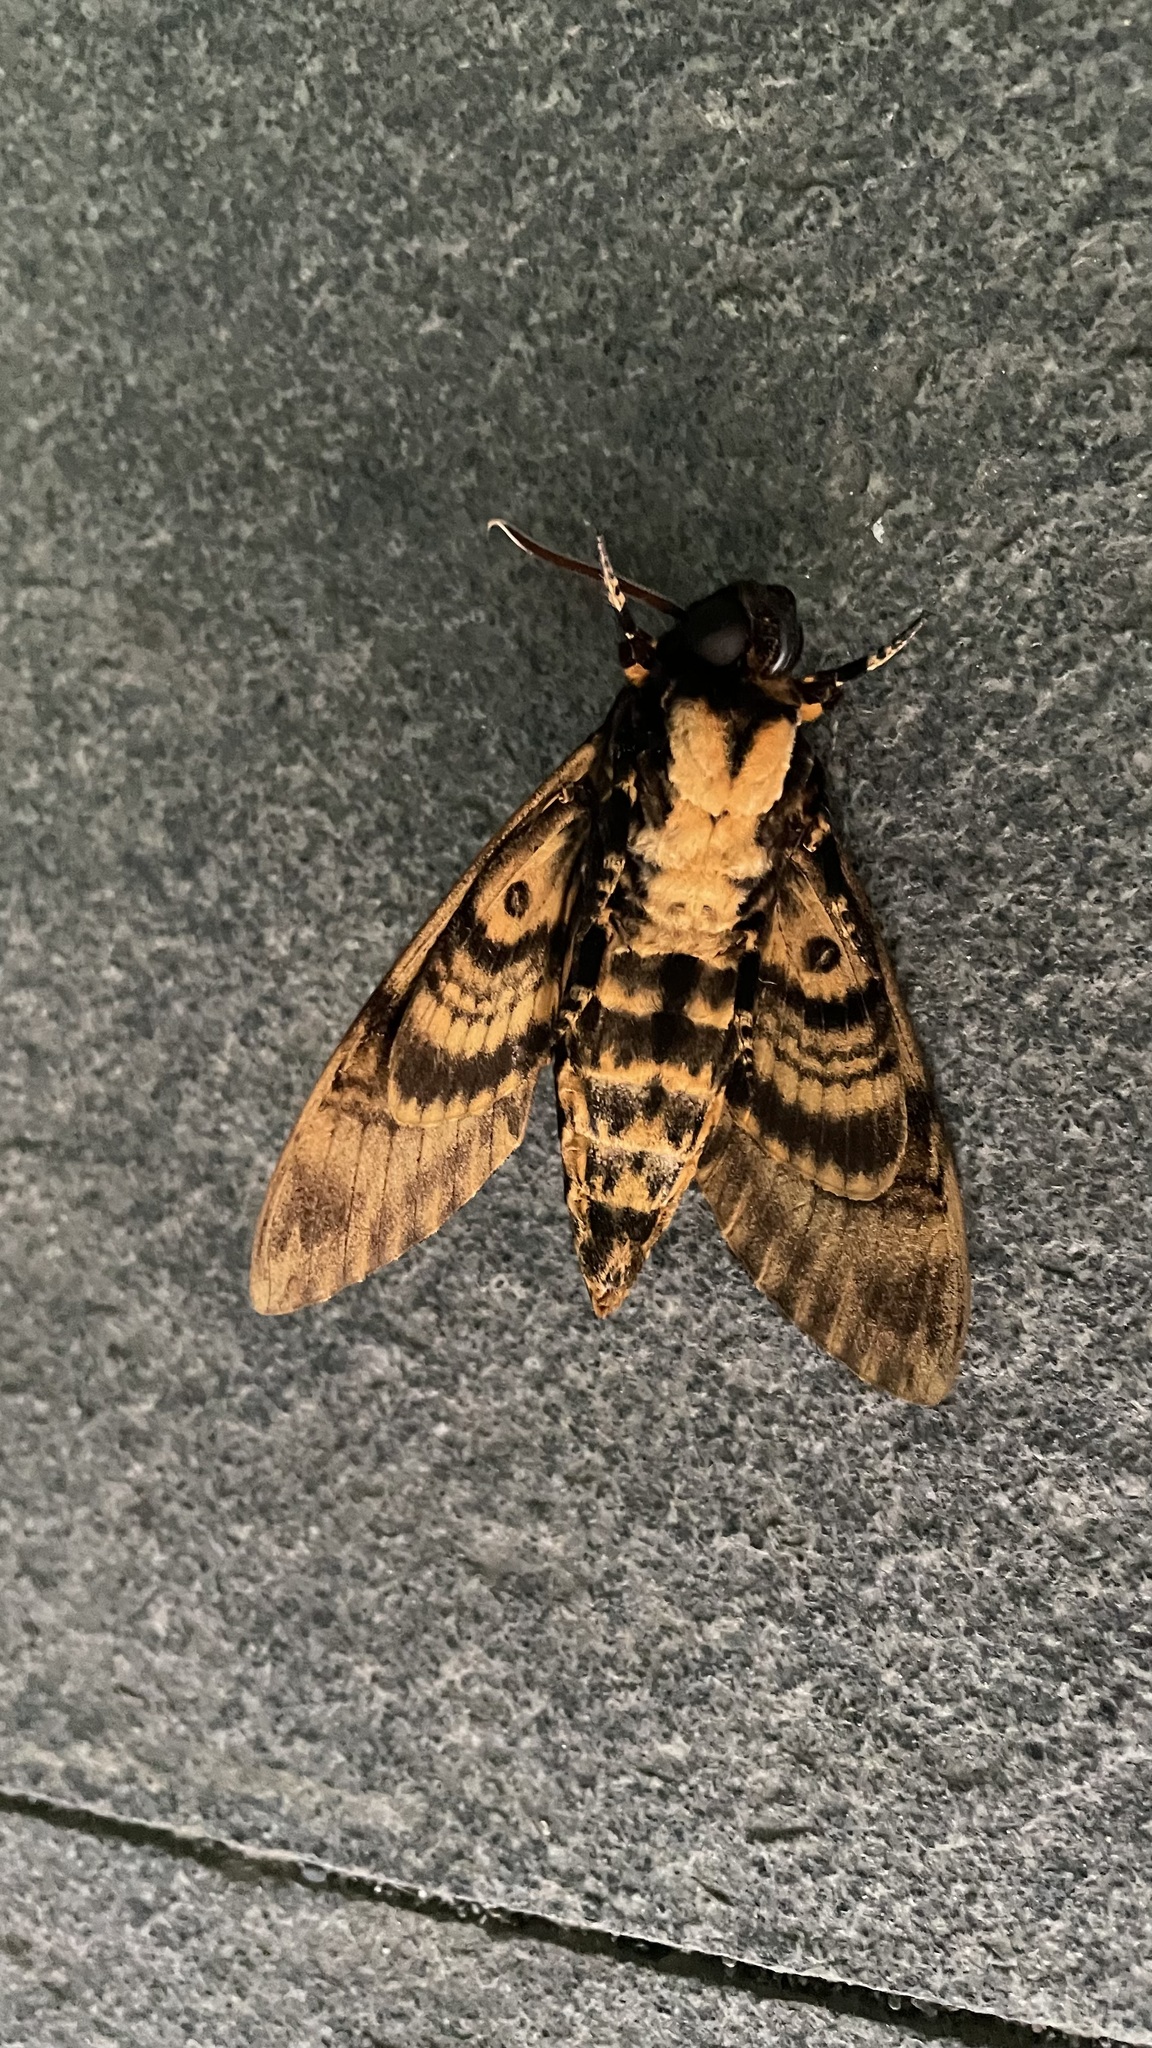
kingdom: Animalia
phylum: Arthropoda
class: Insecta
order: Lepidoptera
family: Sphingidae
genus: Acherontia
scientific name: Acherontia lachesis
